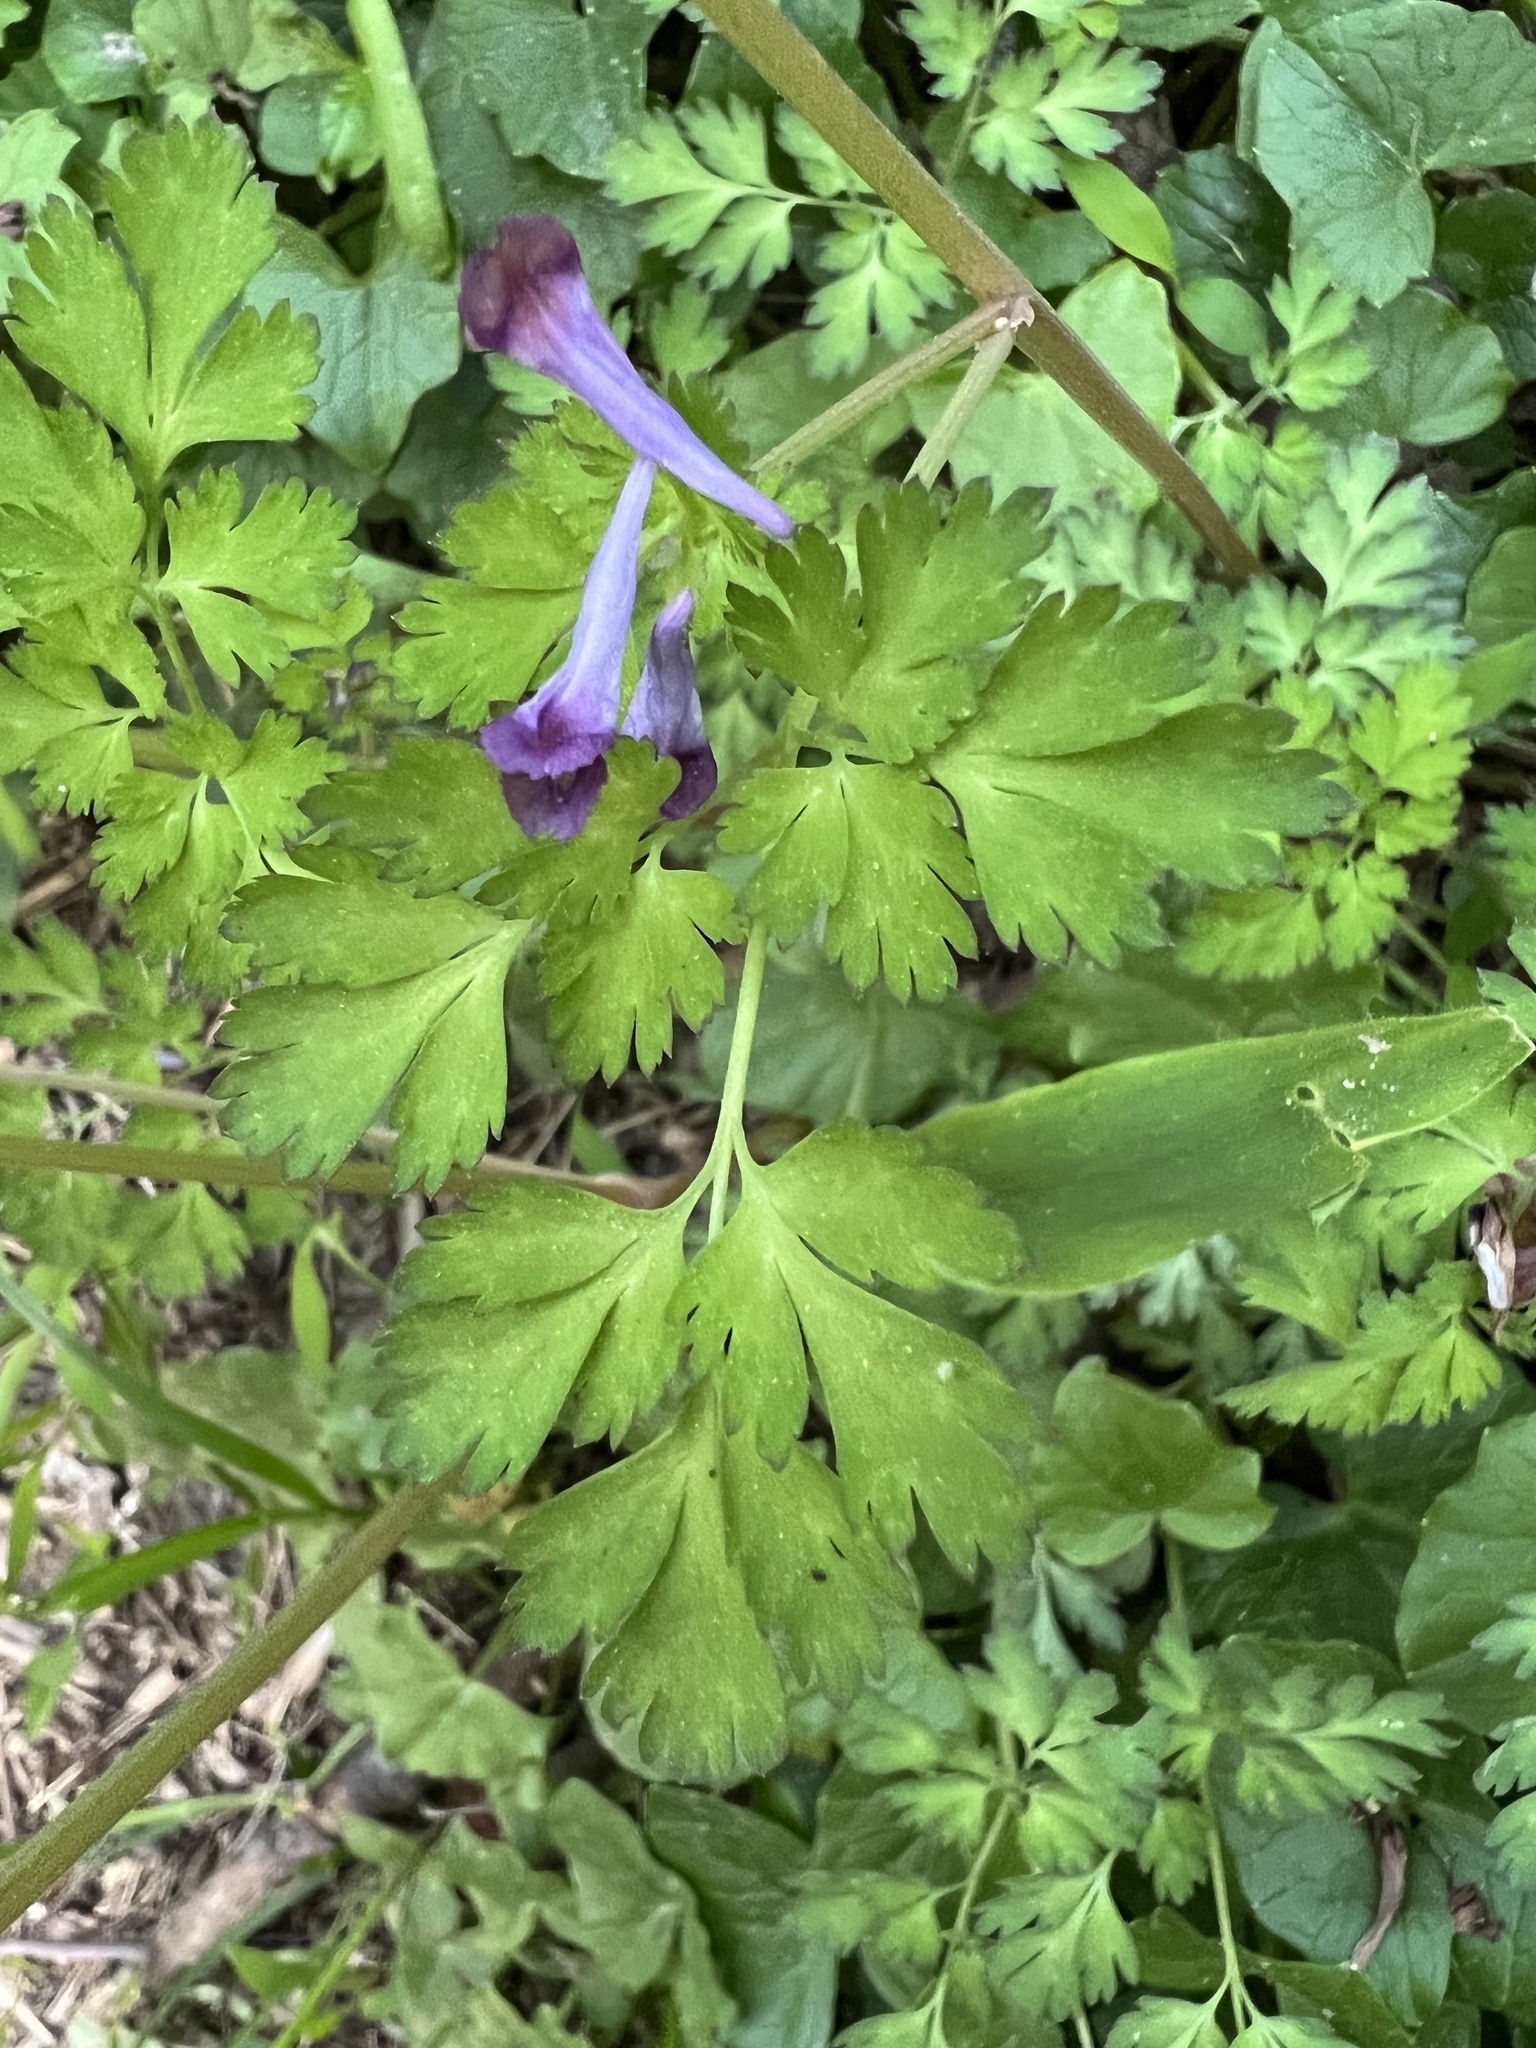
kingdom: Plantae
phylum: Tracheophyta
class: Magnoliopsida
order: Ranunculales
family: Papaveraceae
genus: Corydalis
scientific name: Corydalis incisa
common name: Incised fumewort
